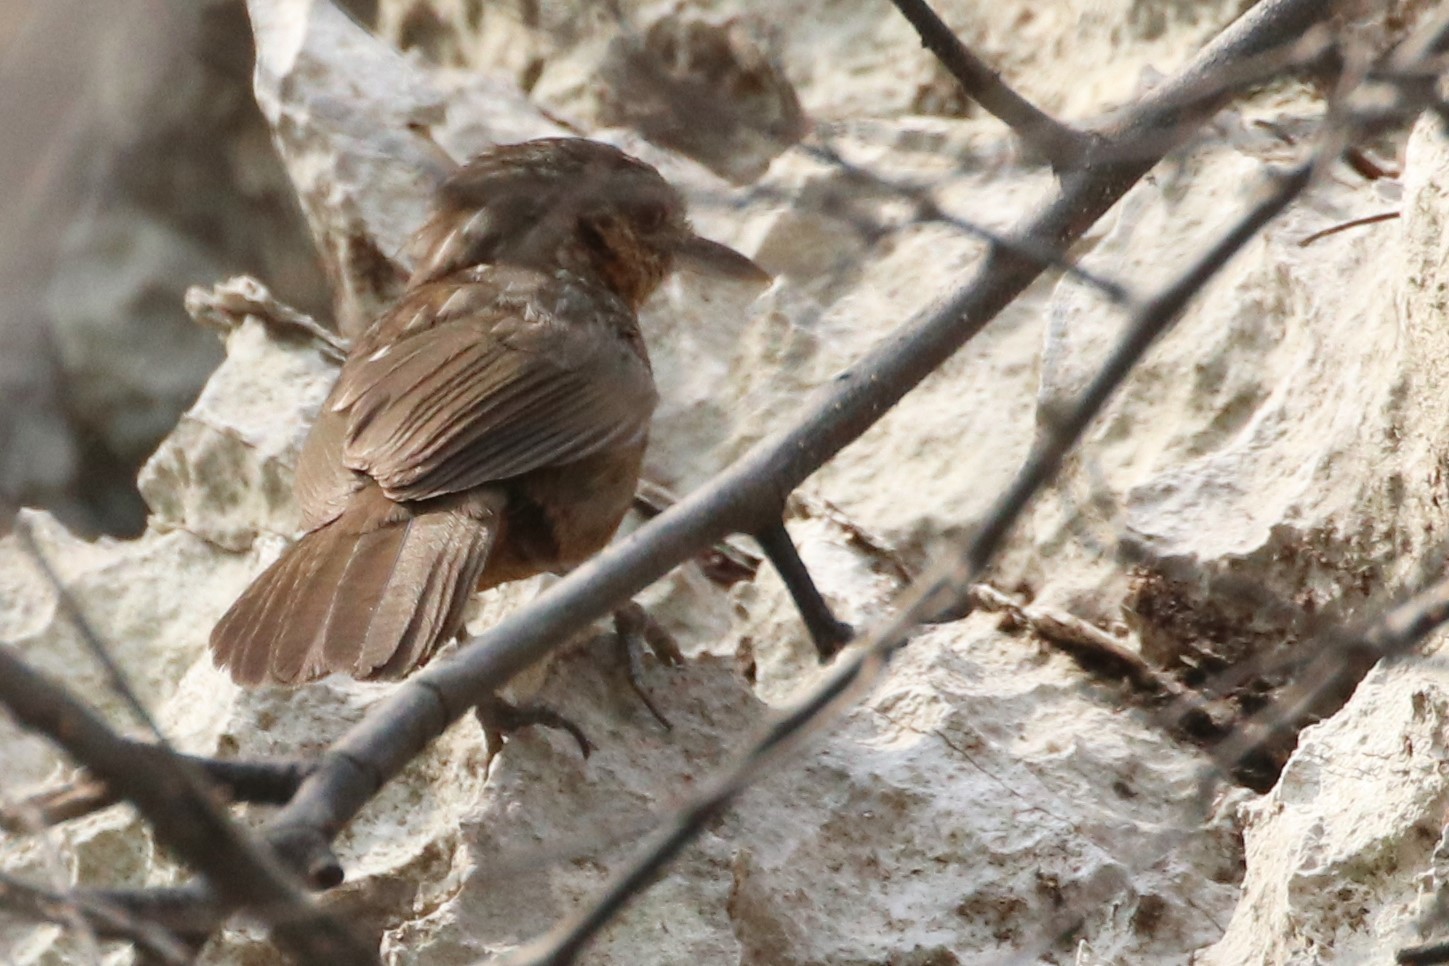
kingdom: Animalia
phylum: Chordata
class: Aves
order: Passeriformes
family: Pellorneidae
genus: Napothera
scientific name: Napothera crispifrons
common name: Limestone wren-babbler
